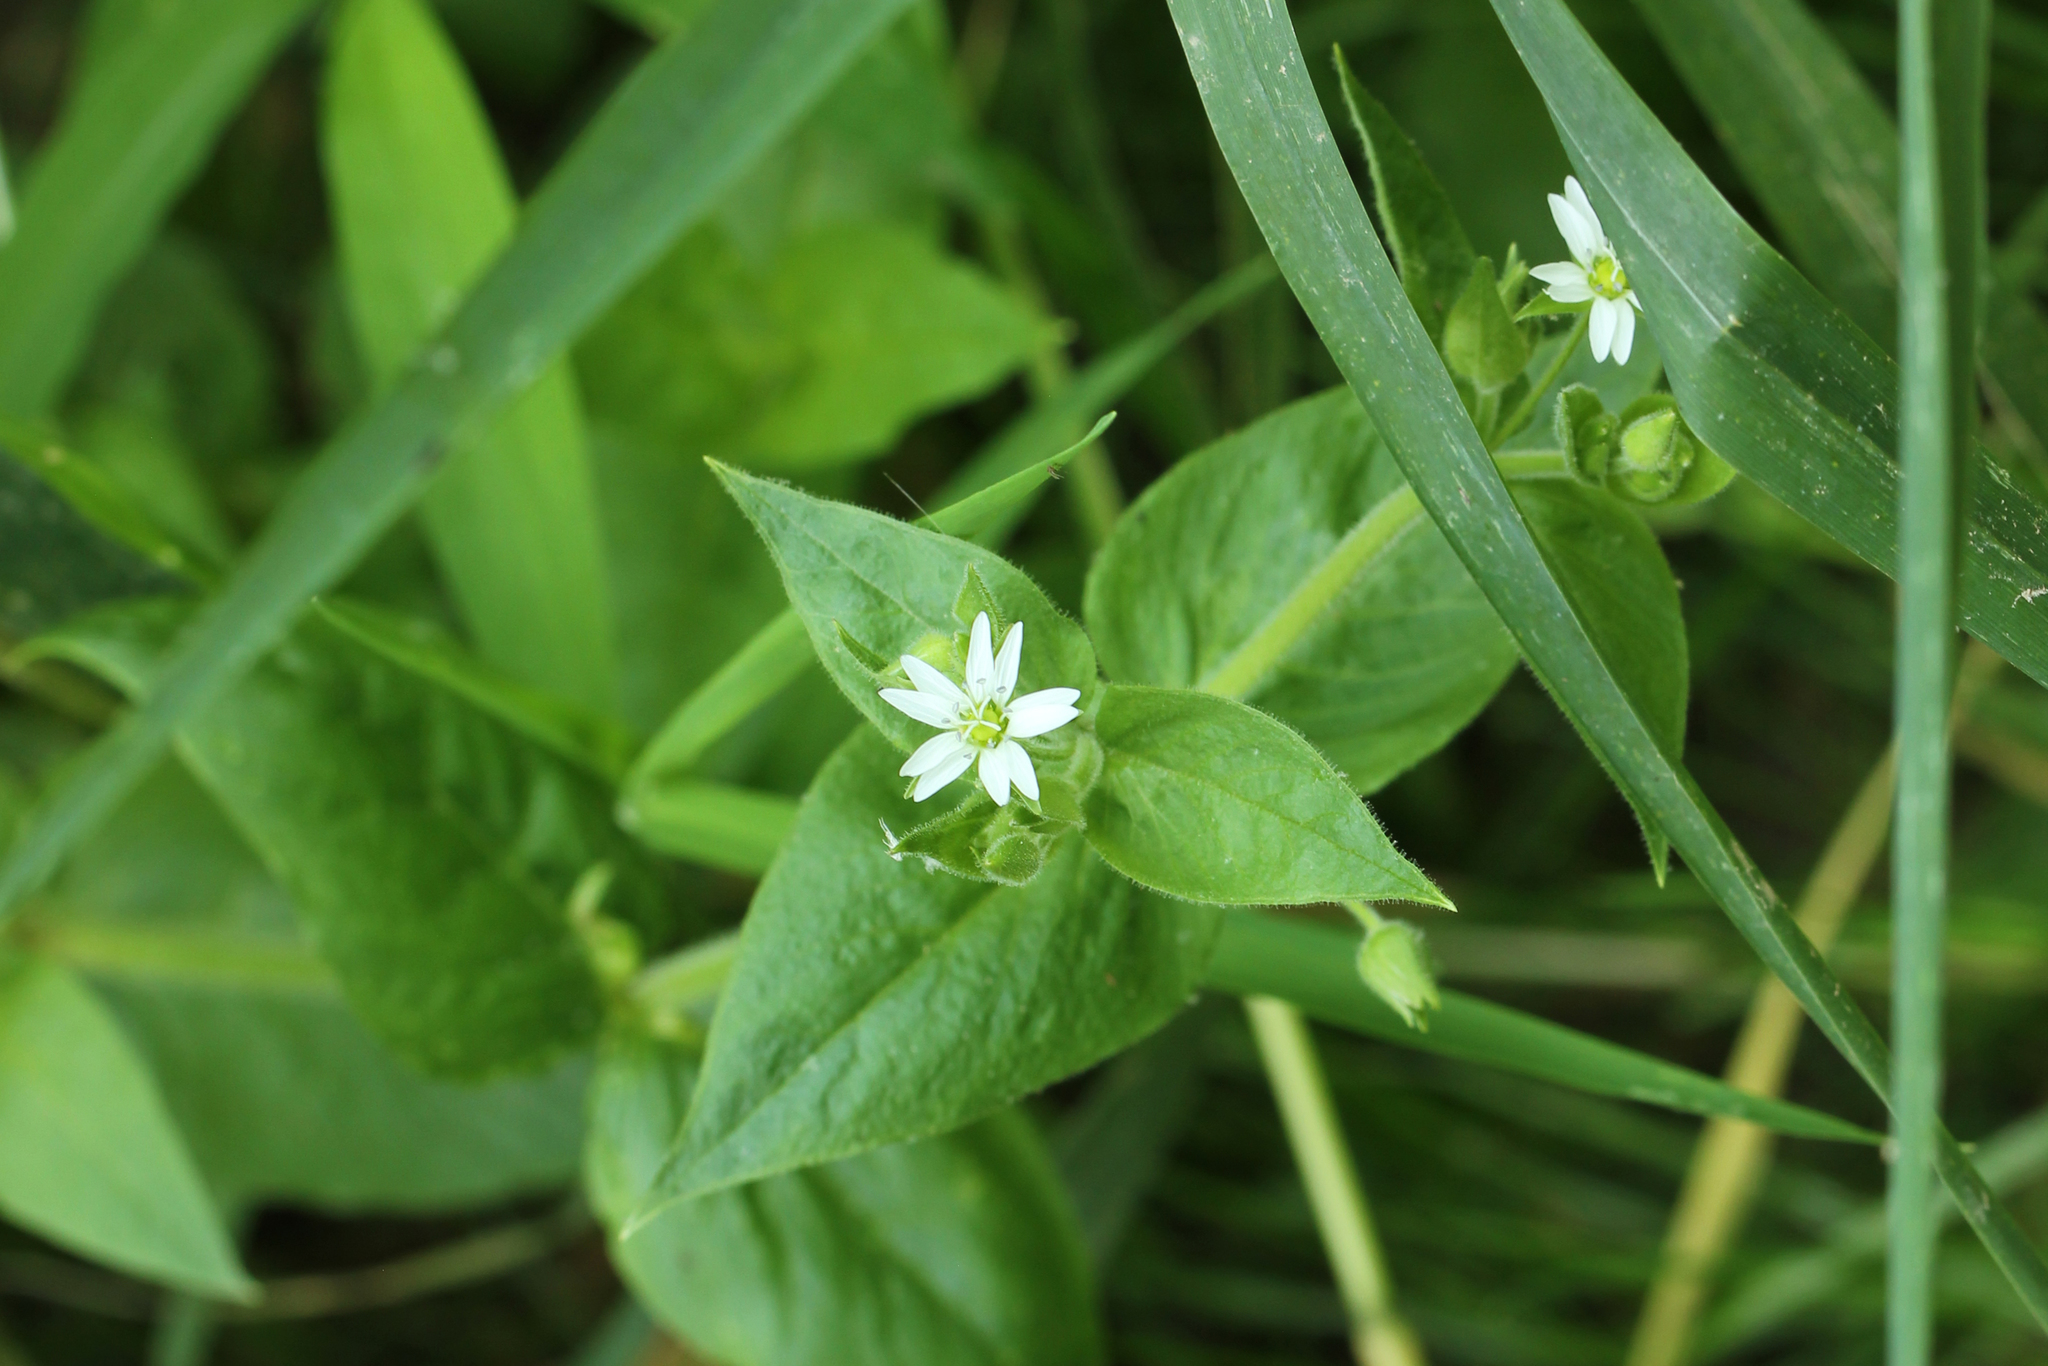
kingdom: Plantae
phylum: Tracheophyta
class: Magnoliopsida
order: Caryophyllales
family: Caryophyllaceae
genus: Stellaria
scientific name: Stellaria media
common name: Common chickweed
